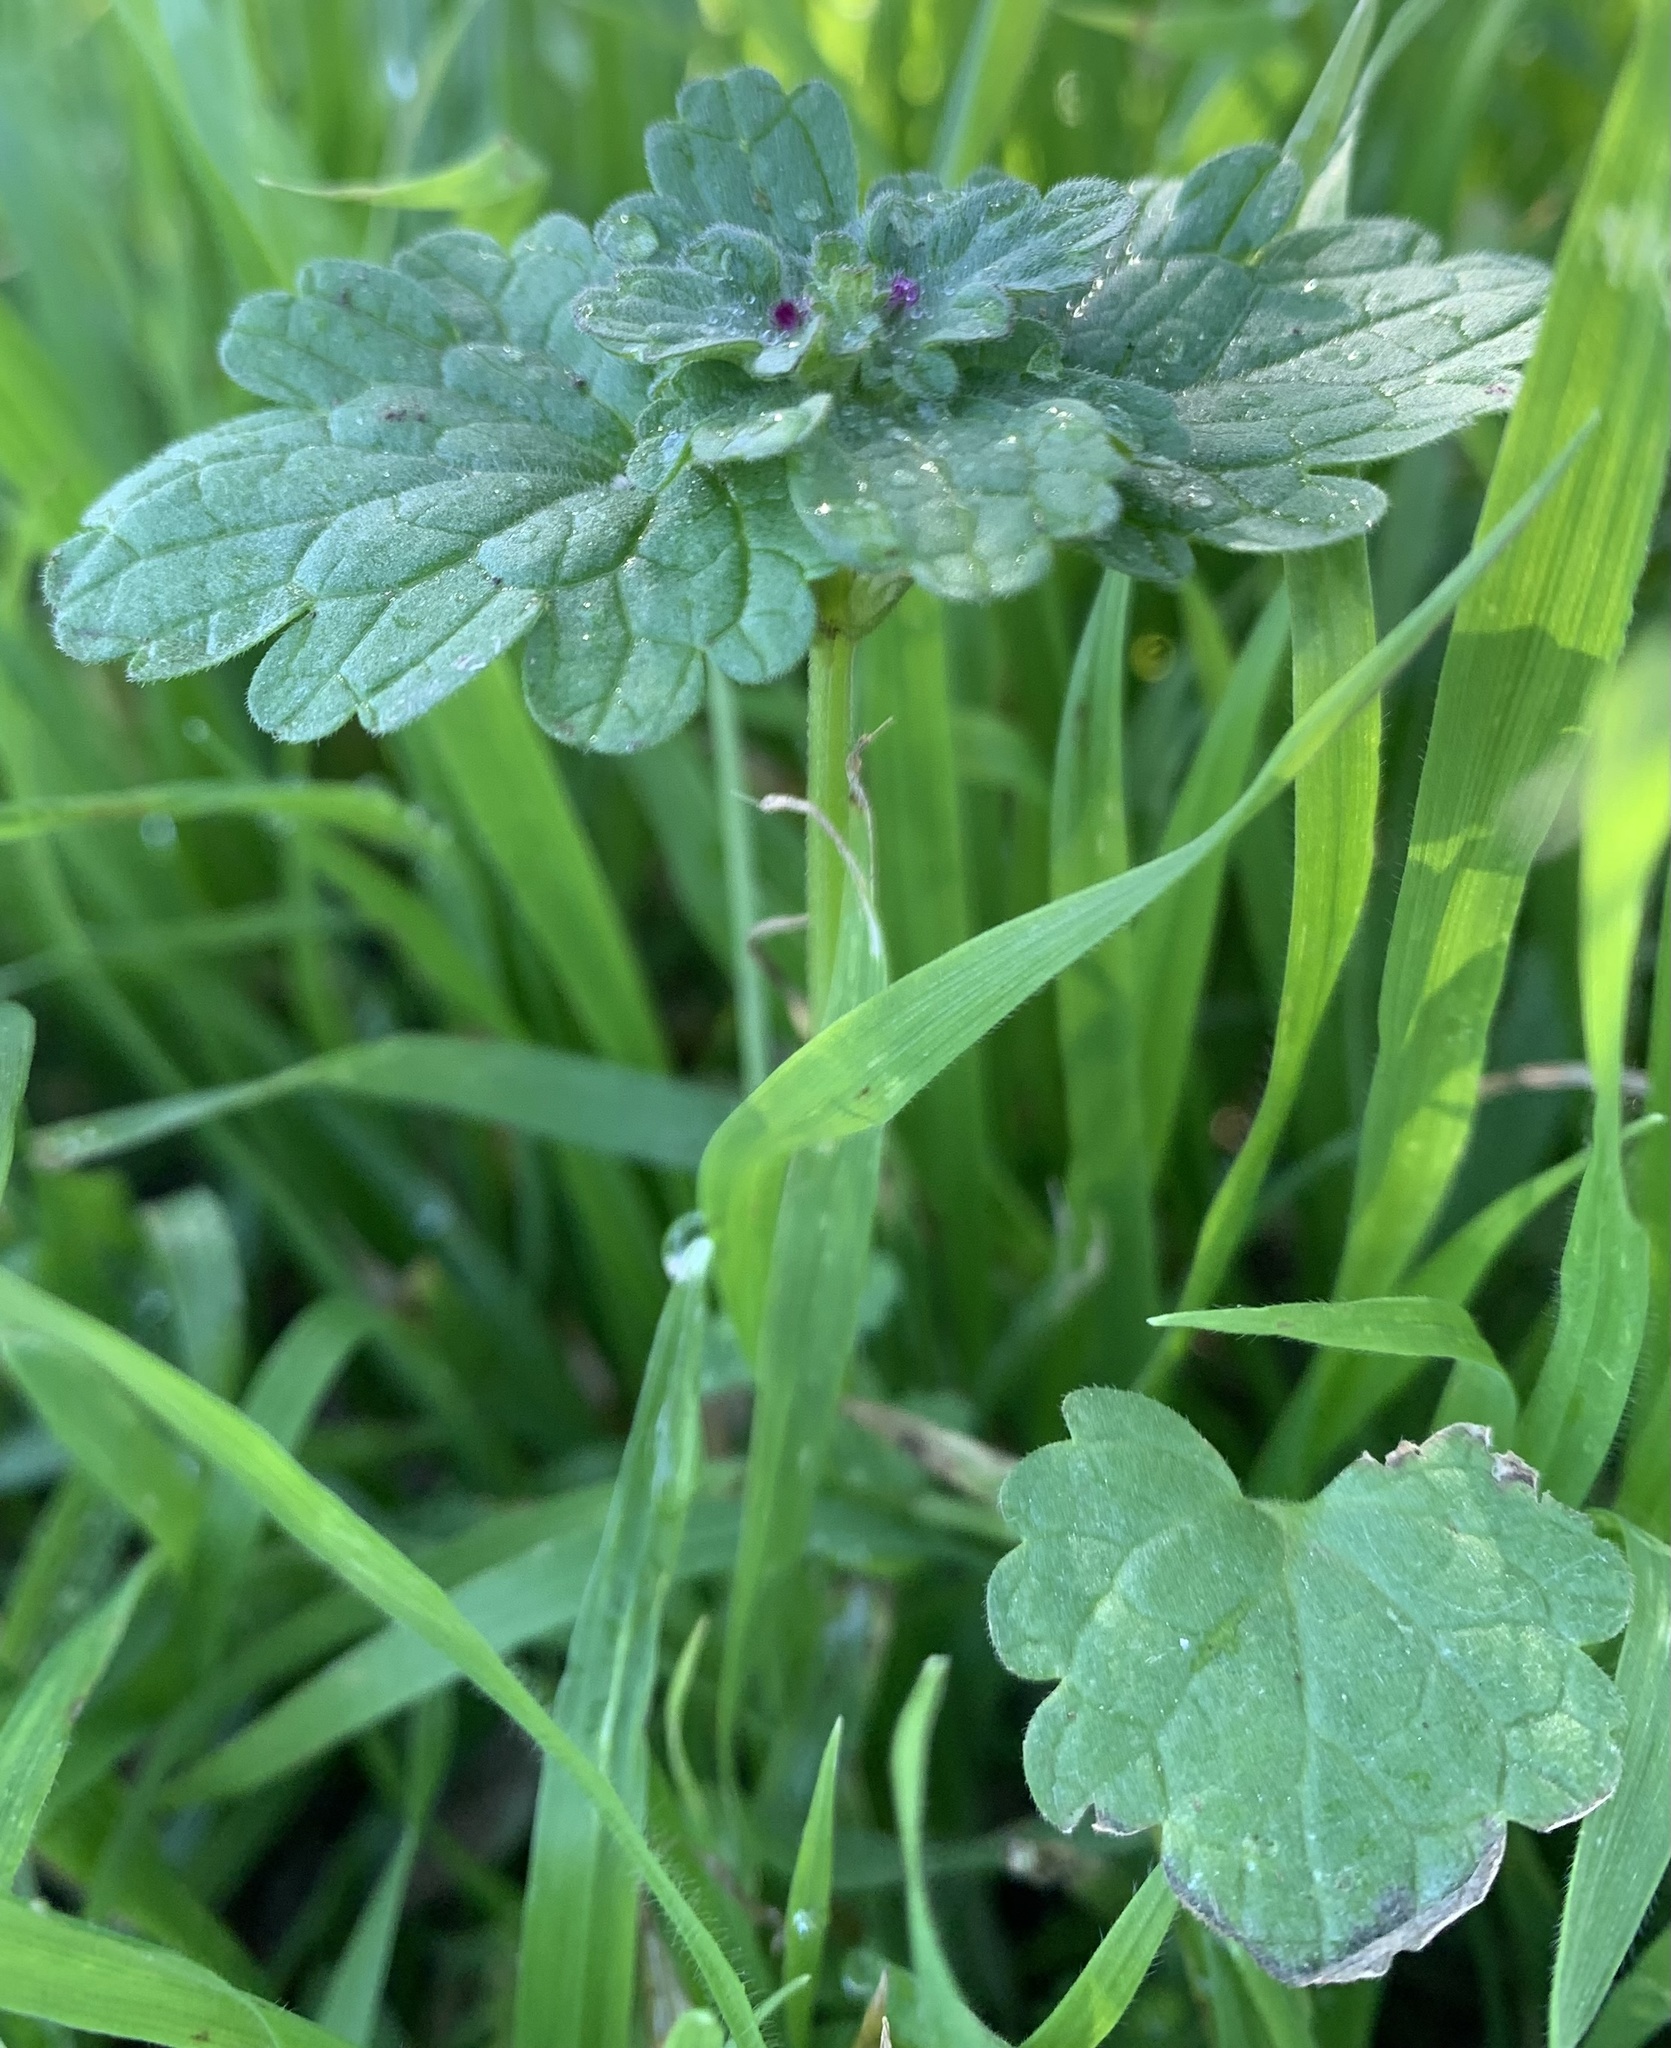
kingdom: Plantae
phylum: Tracheophyta
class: Magnoliopsida
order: Lamiales
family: Lamiaceae
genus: Lamium
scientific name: Lamium amplexicaule
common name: Henbit dead-nettle
